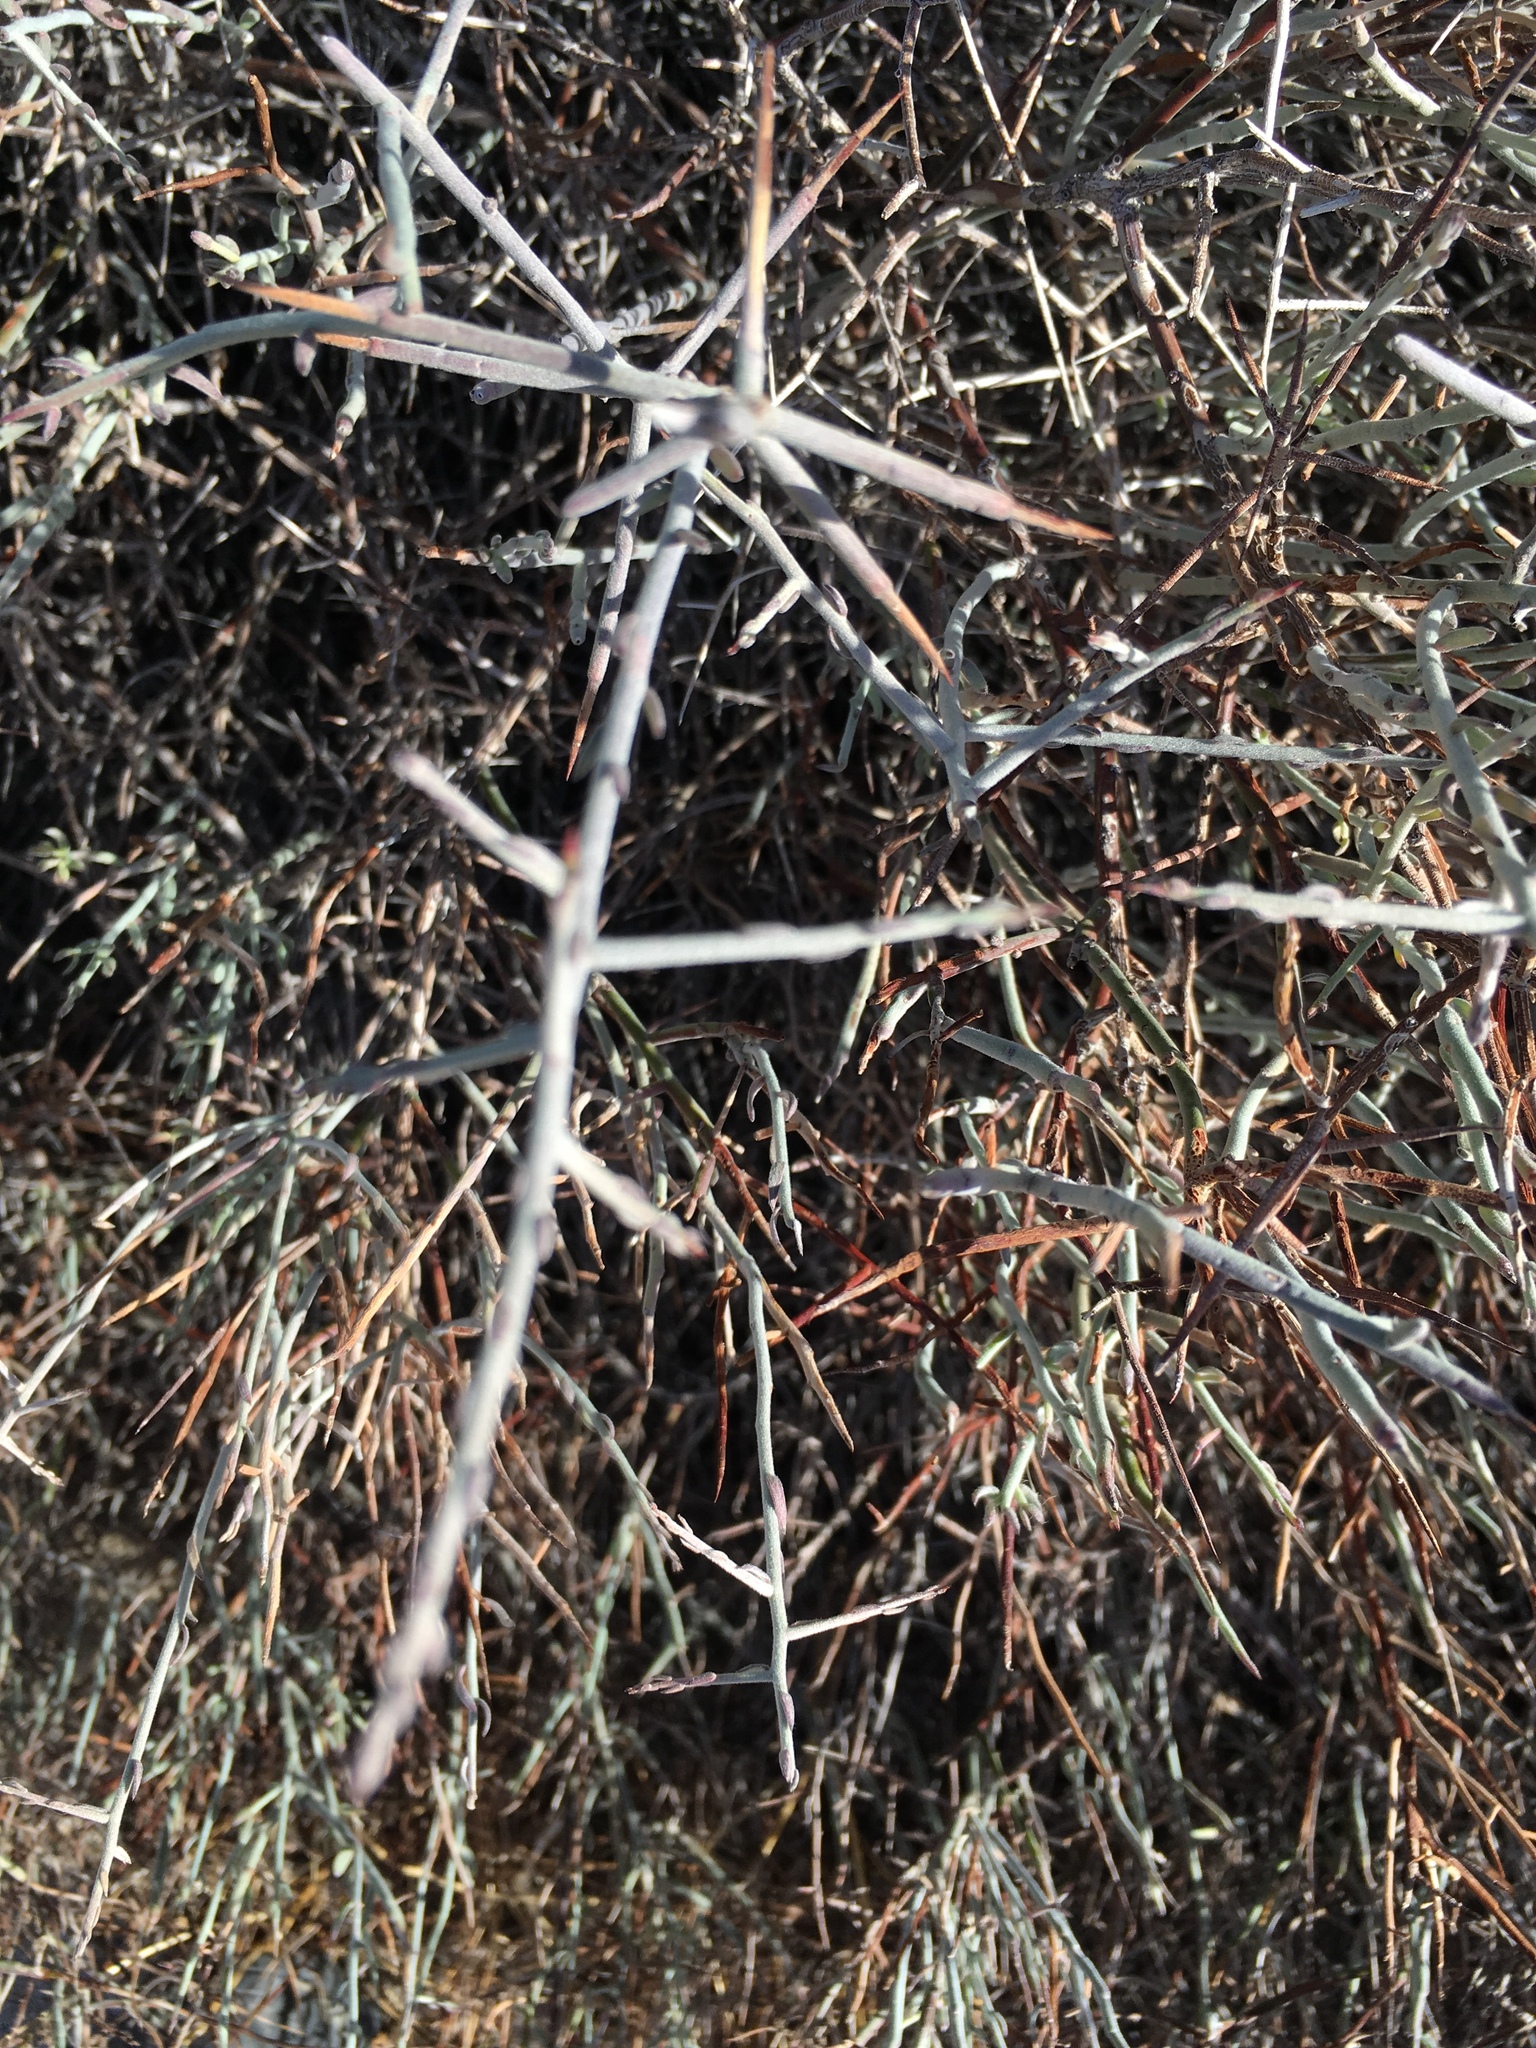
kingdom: Plantae
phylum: Tracheophyta
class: Magnoliopsida
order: Zygophyllales
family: Krameriaceae
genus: Krameria
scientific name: Krameria bicolor
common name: White ratany
